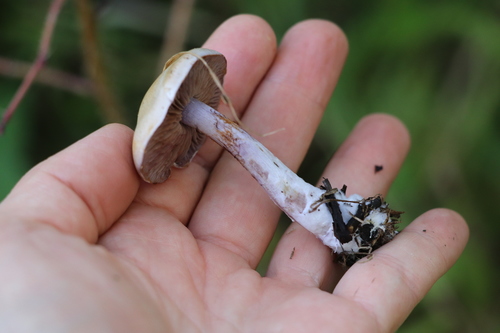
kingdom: Fungi
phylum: Basidiomycota
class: Agaricomycetes
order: Agaricales
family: Cortinariaceae
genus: Thaxterogaster
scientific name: Thaxterogaster porphyropus
